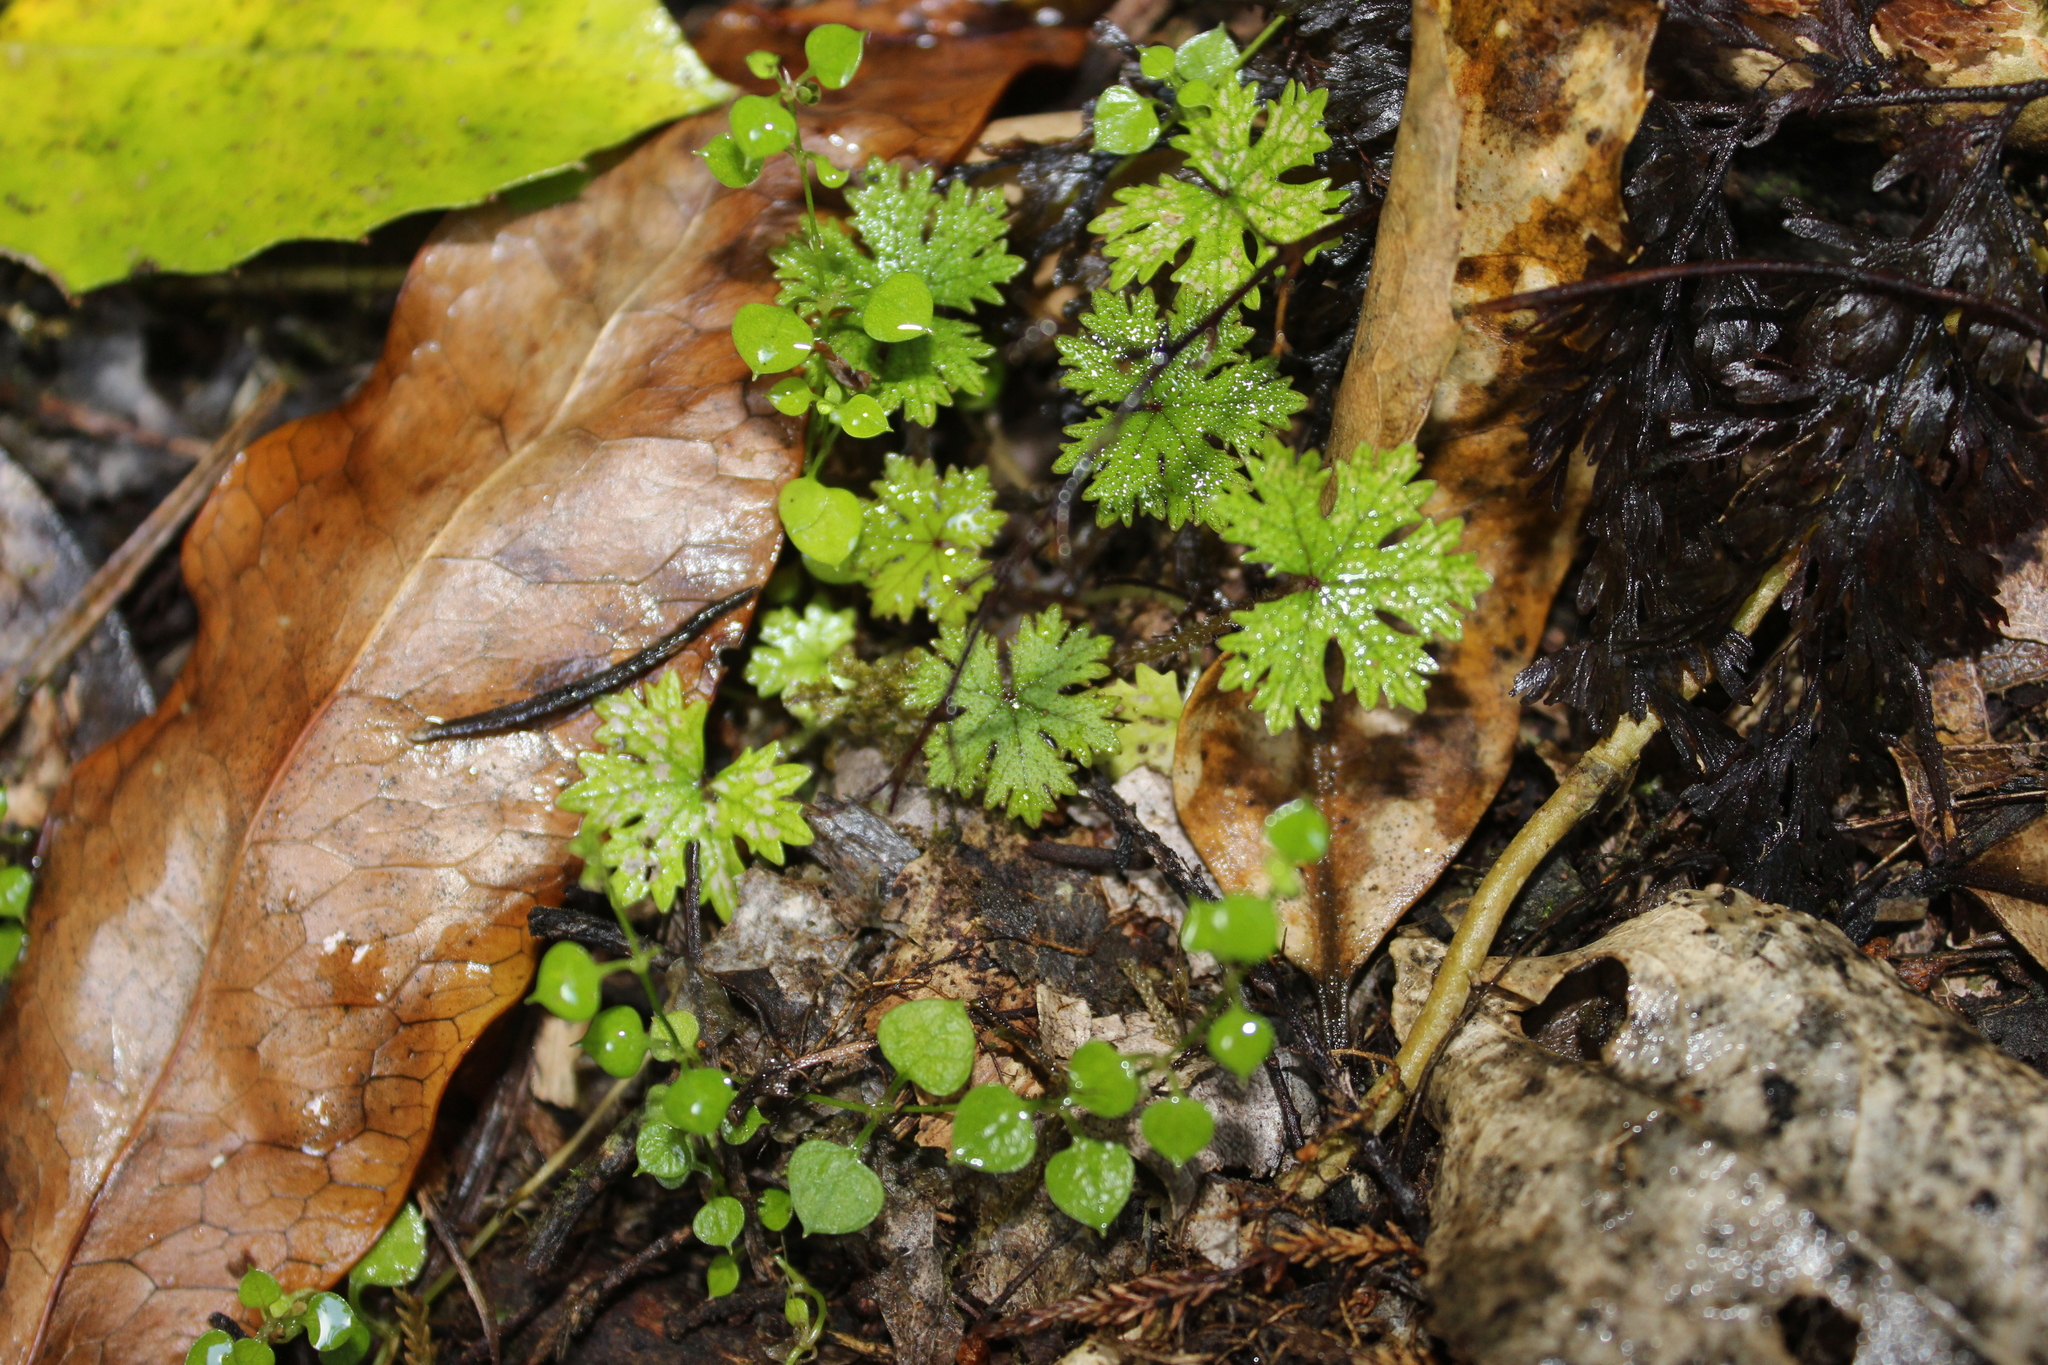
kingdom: Plantae
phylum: Tracheophyta
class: Magnoliopsida
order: Apiales
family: Araliaceae
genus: Hydrocotyle
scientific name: Hydrocotyle dissecta
